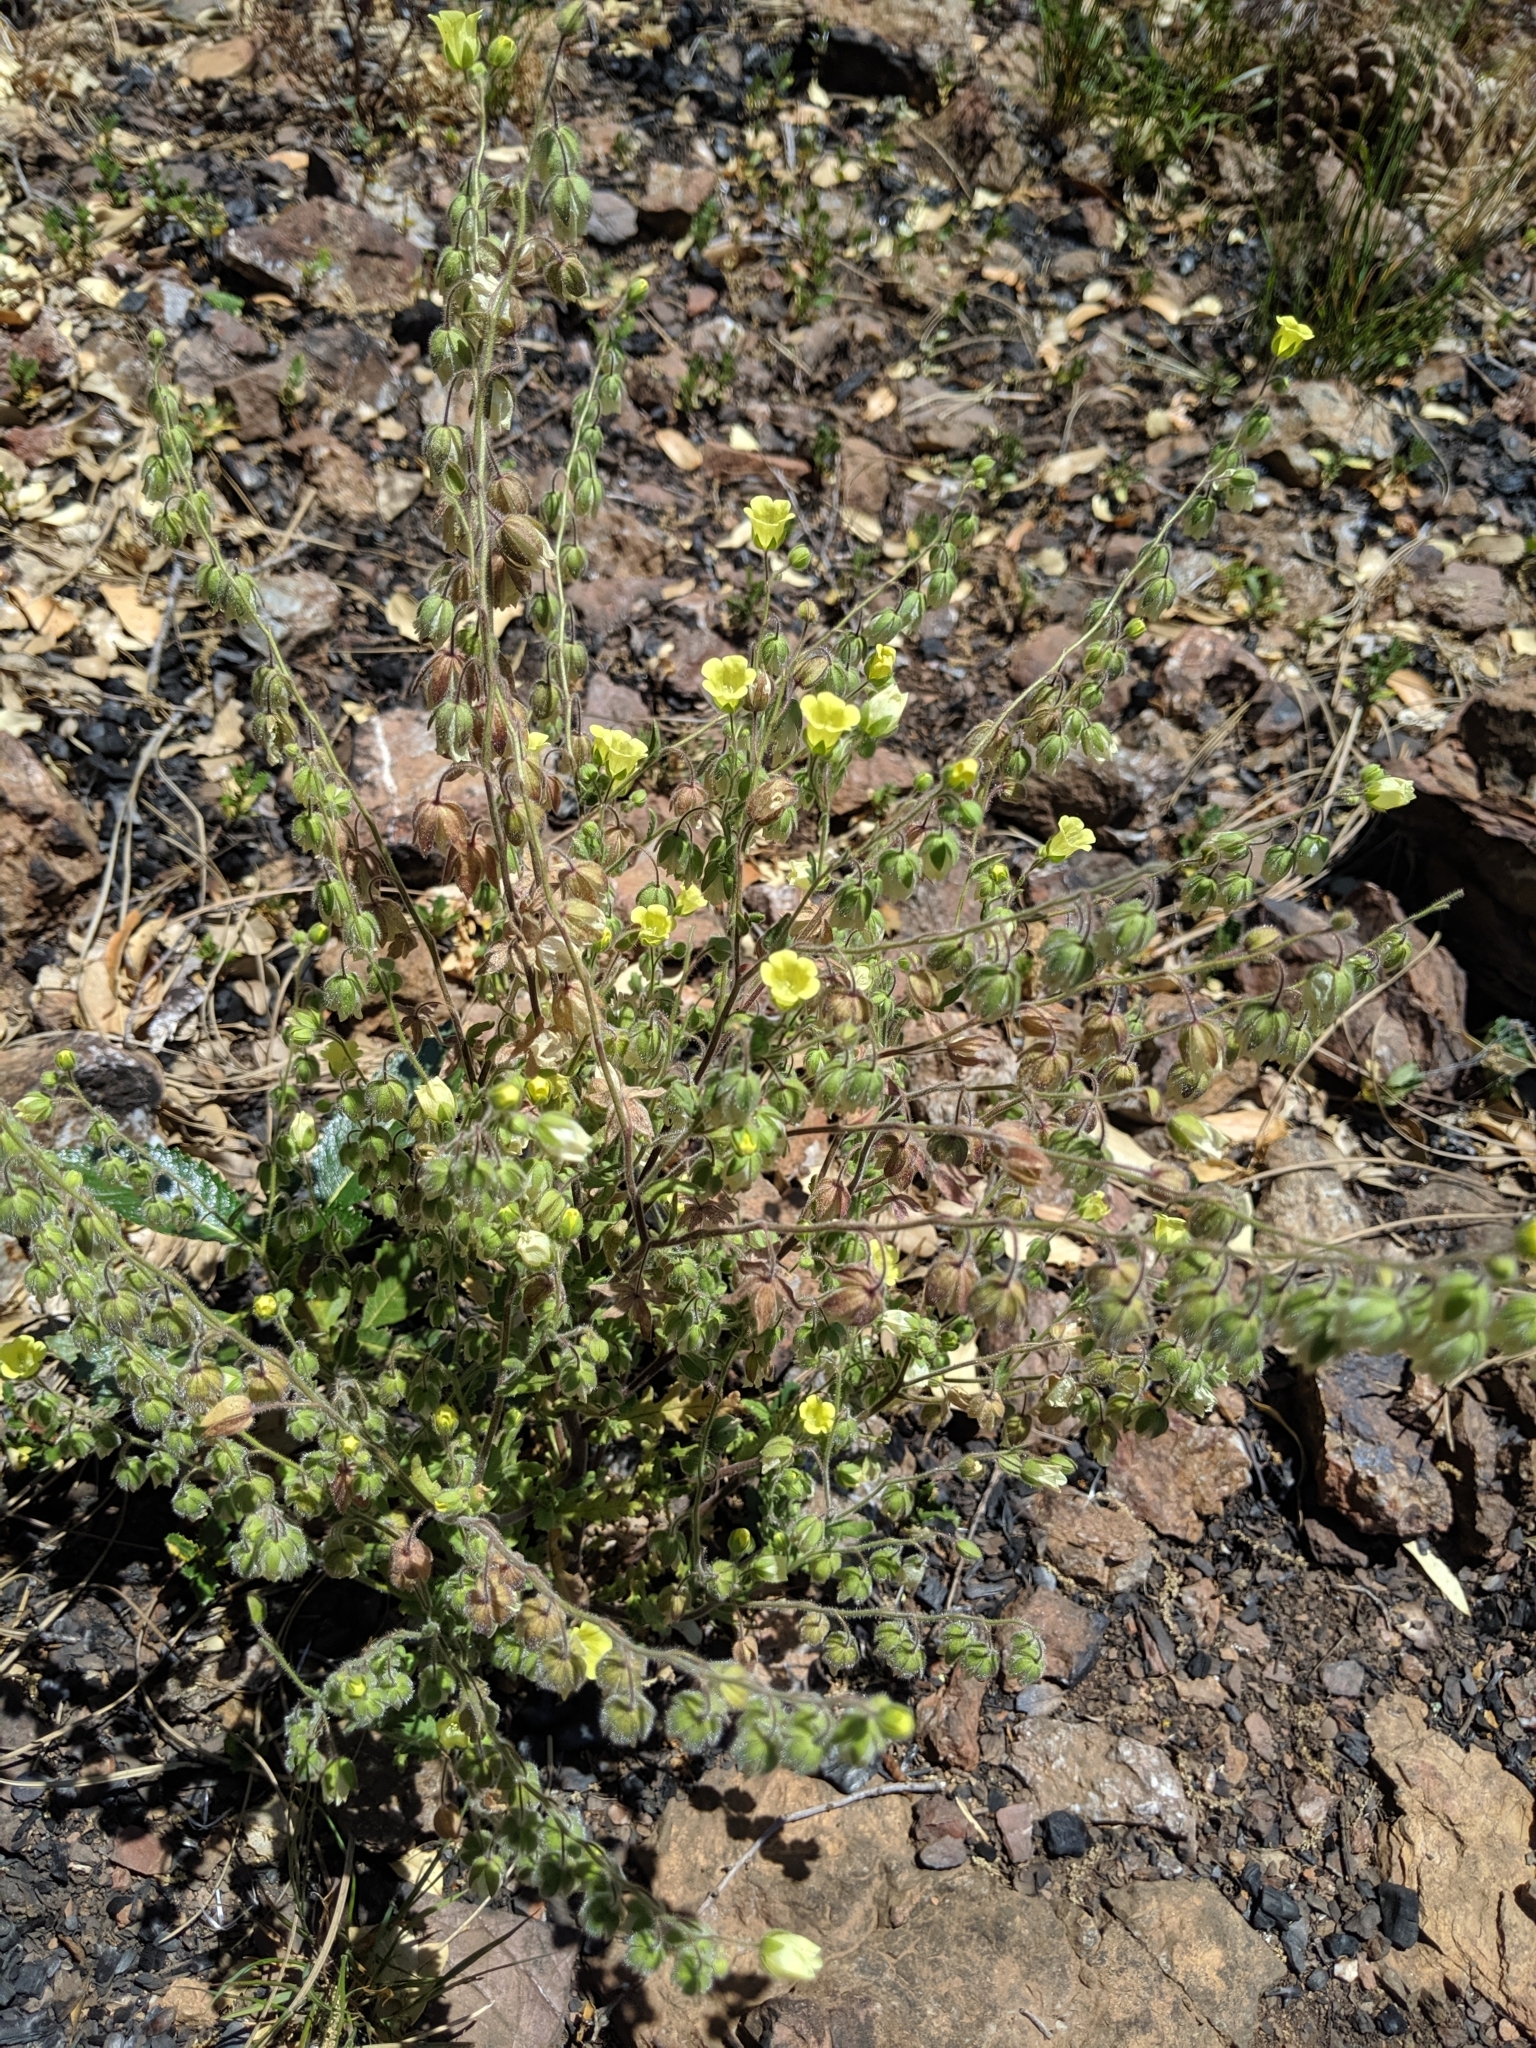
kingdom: Plantae
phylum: Tracheophyta
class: Magnoliopsida
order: Boraginales
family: Hydrophyllaceae
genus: Emmenanthe
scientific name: Emmenanthe penduliflora
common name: Whispering-bells
